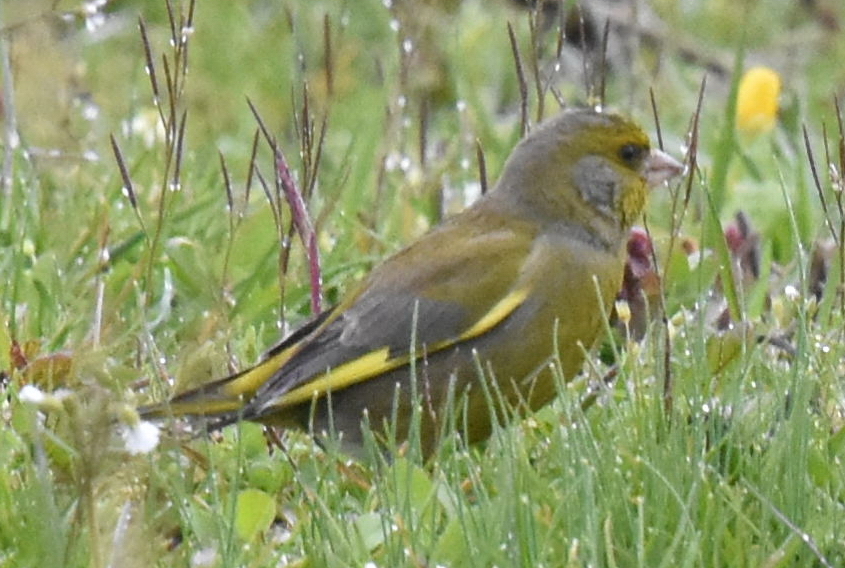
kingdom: Plantae
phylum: Tracheophyta
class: Liliopsida
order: Poales
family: Poaceae
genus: Chloris
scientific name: Chloris chloris
